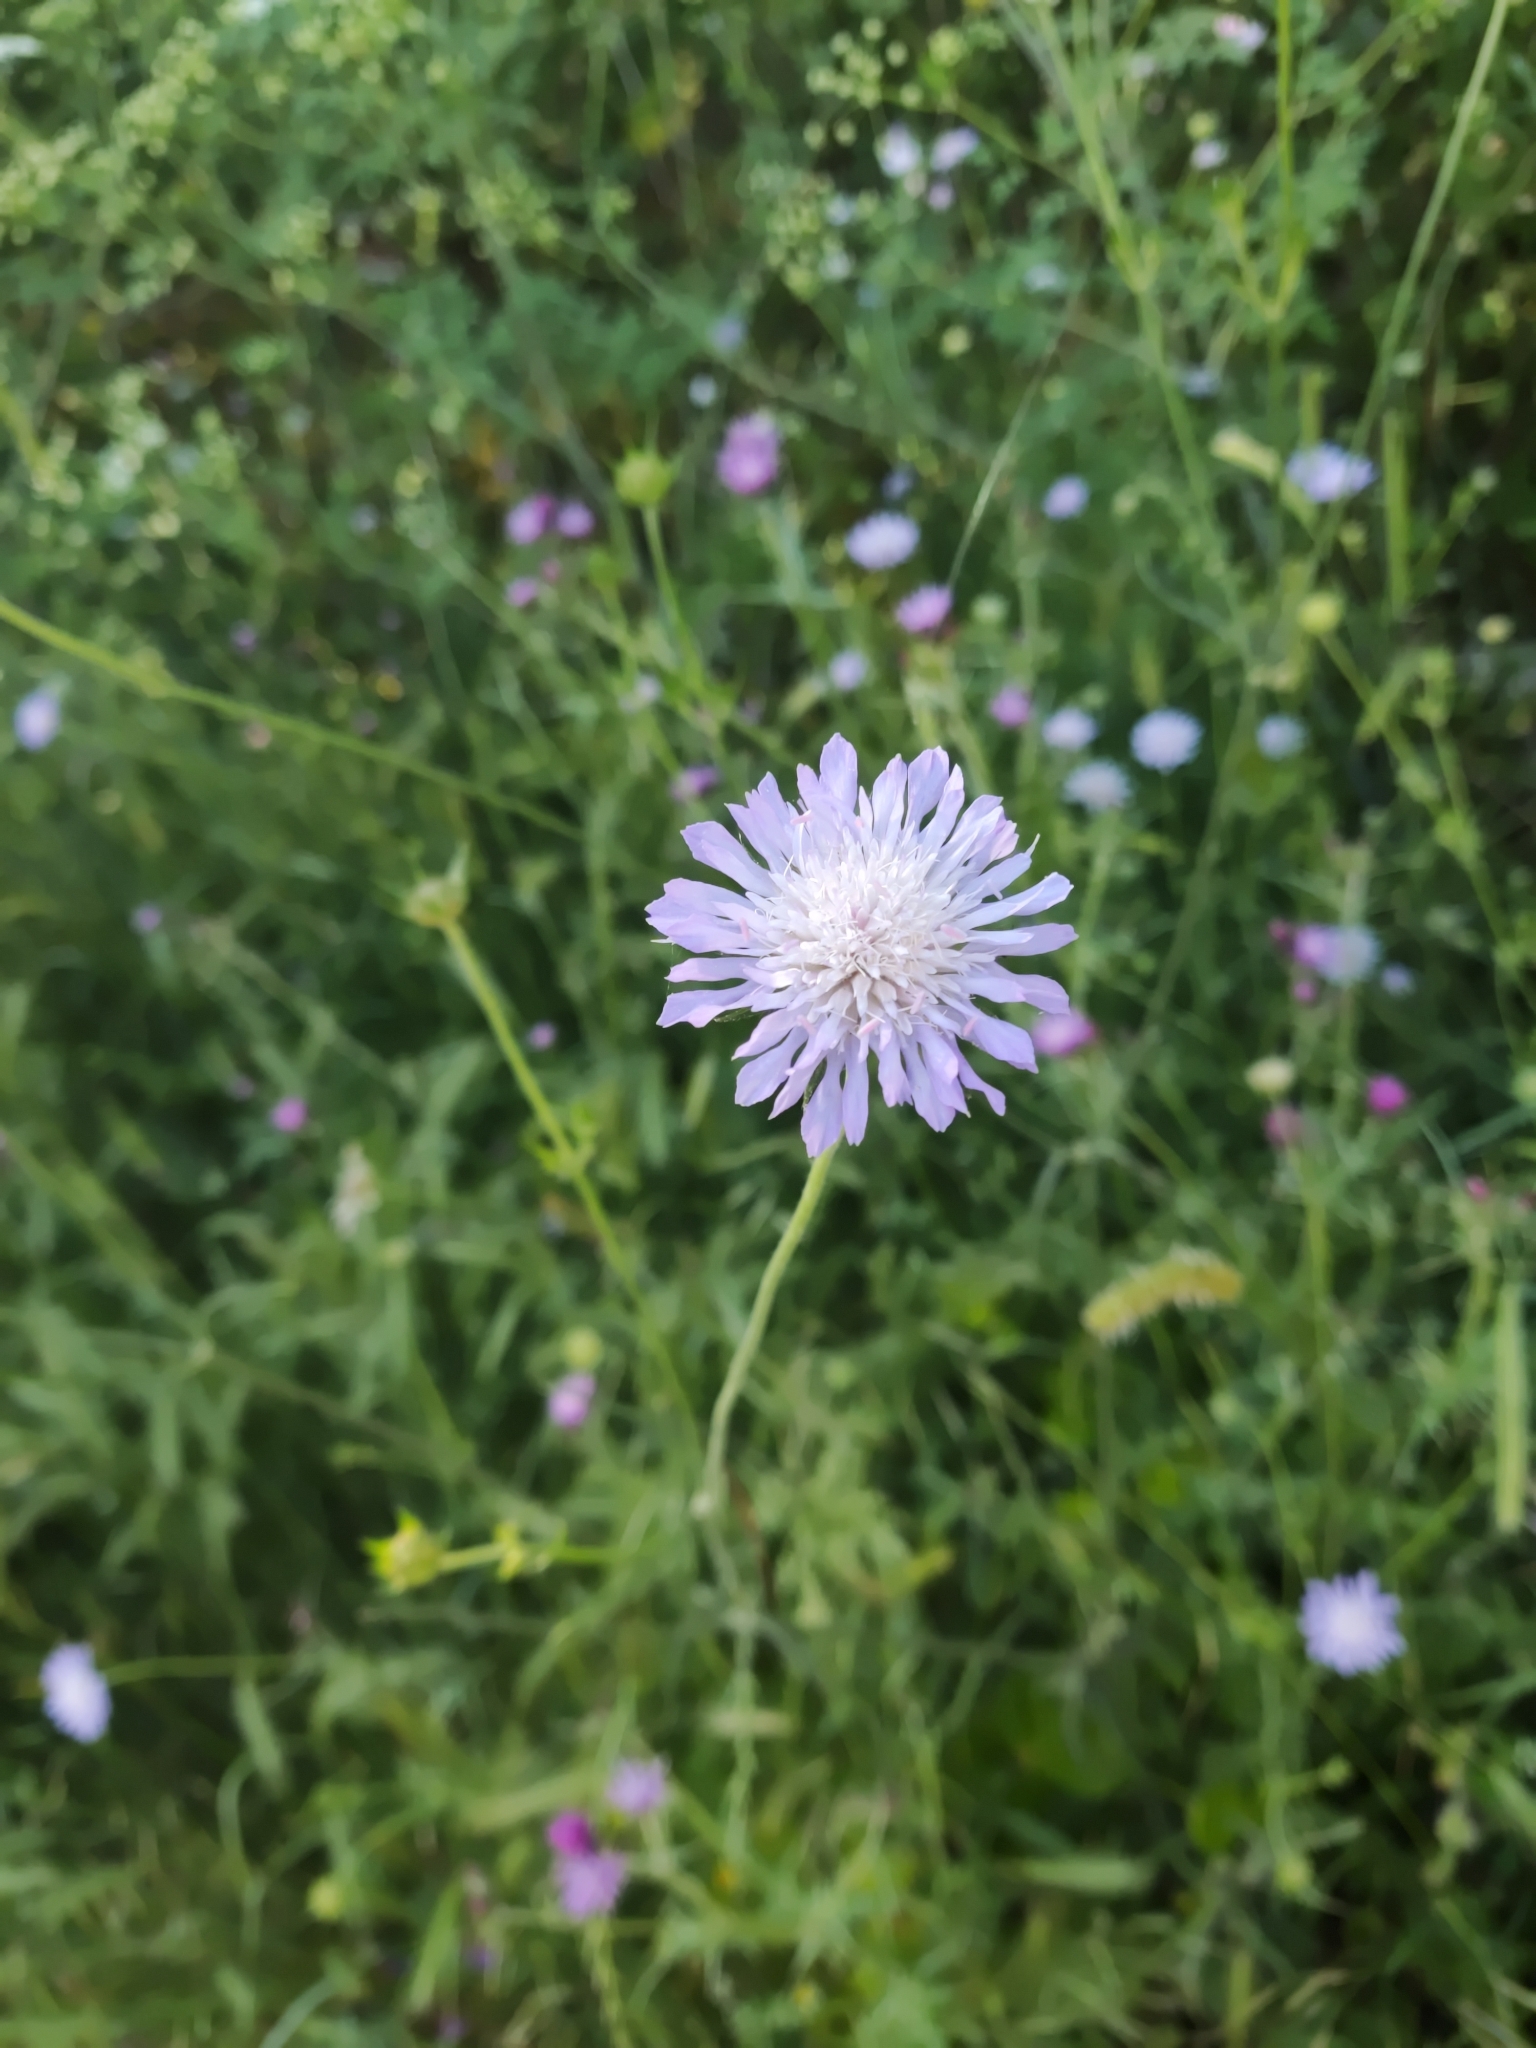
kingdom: Plantae
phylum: Tracheophyta
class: Magnoliopsida
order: Dipsacales
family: Caprifoliaceae
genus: Knautia
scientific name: Knautia arvensis
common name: Field scabiosa
